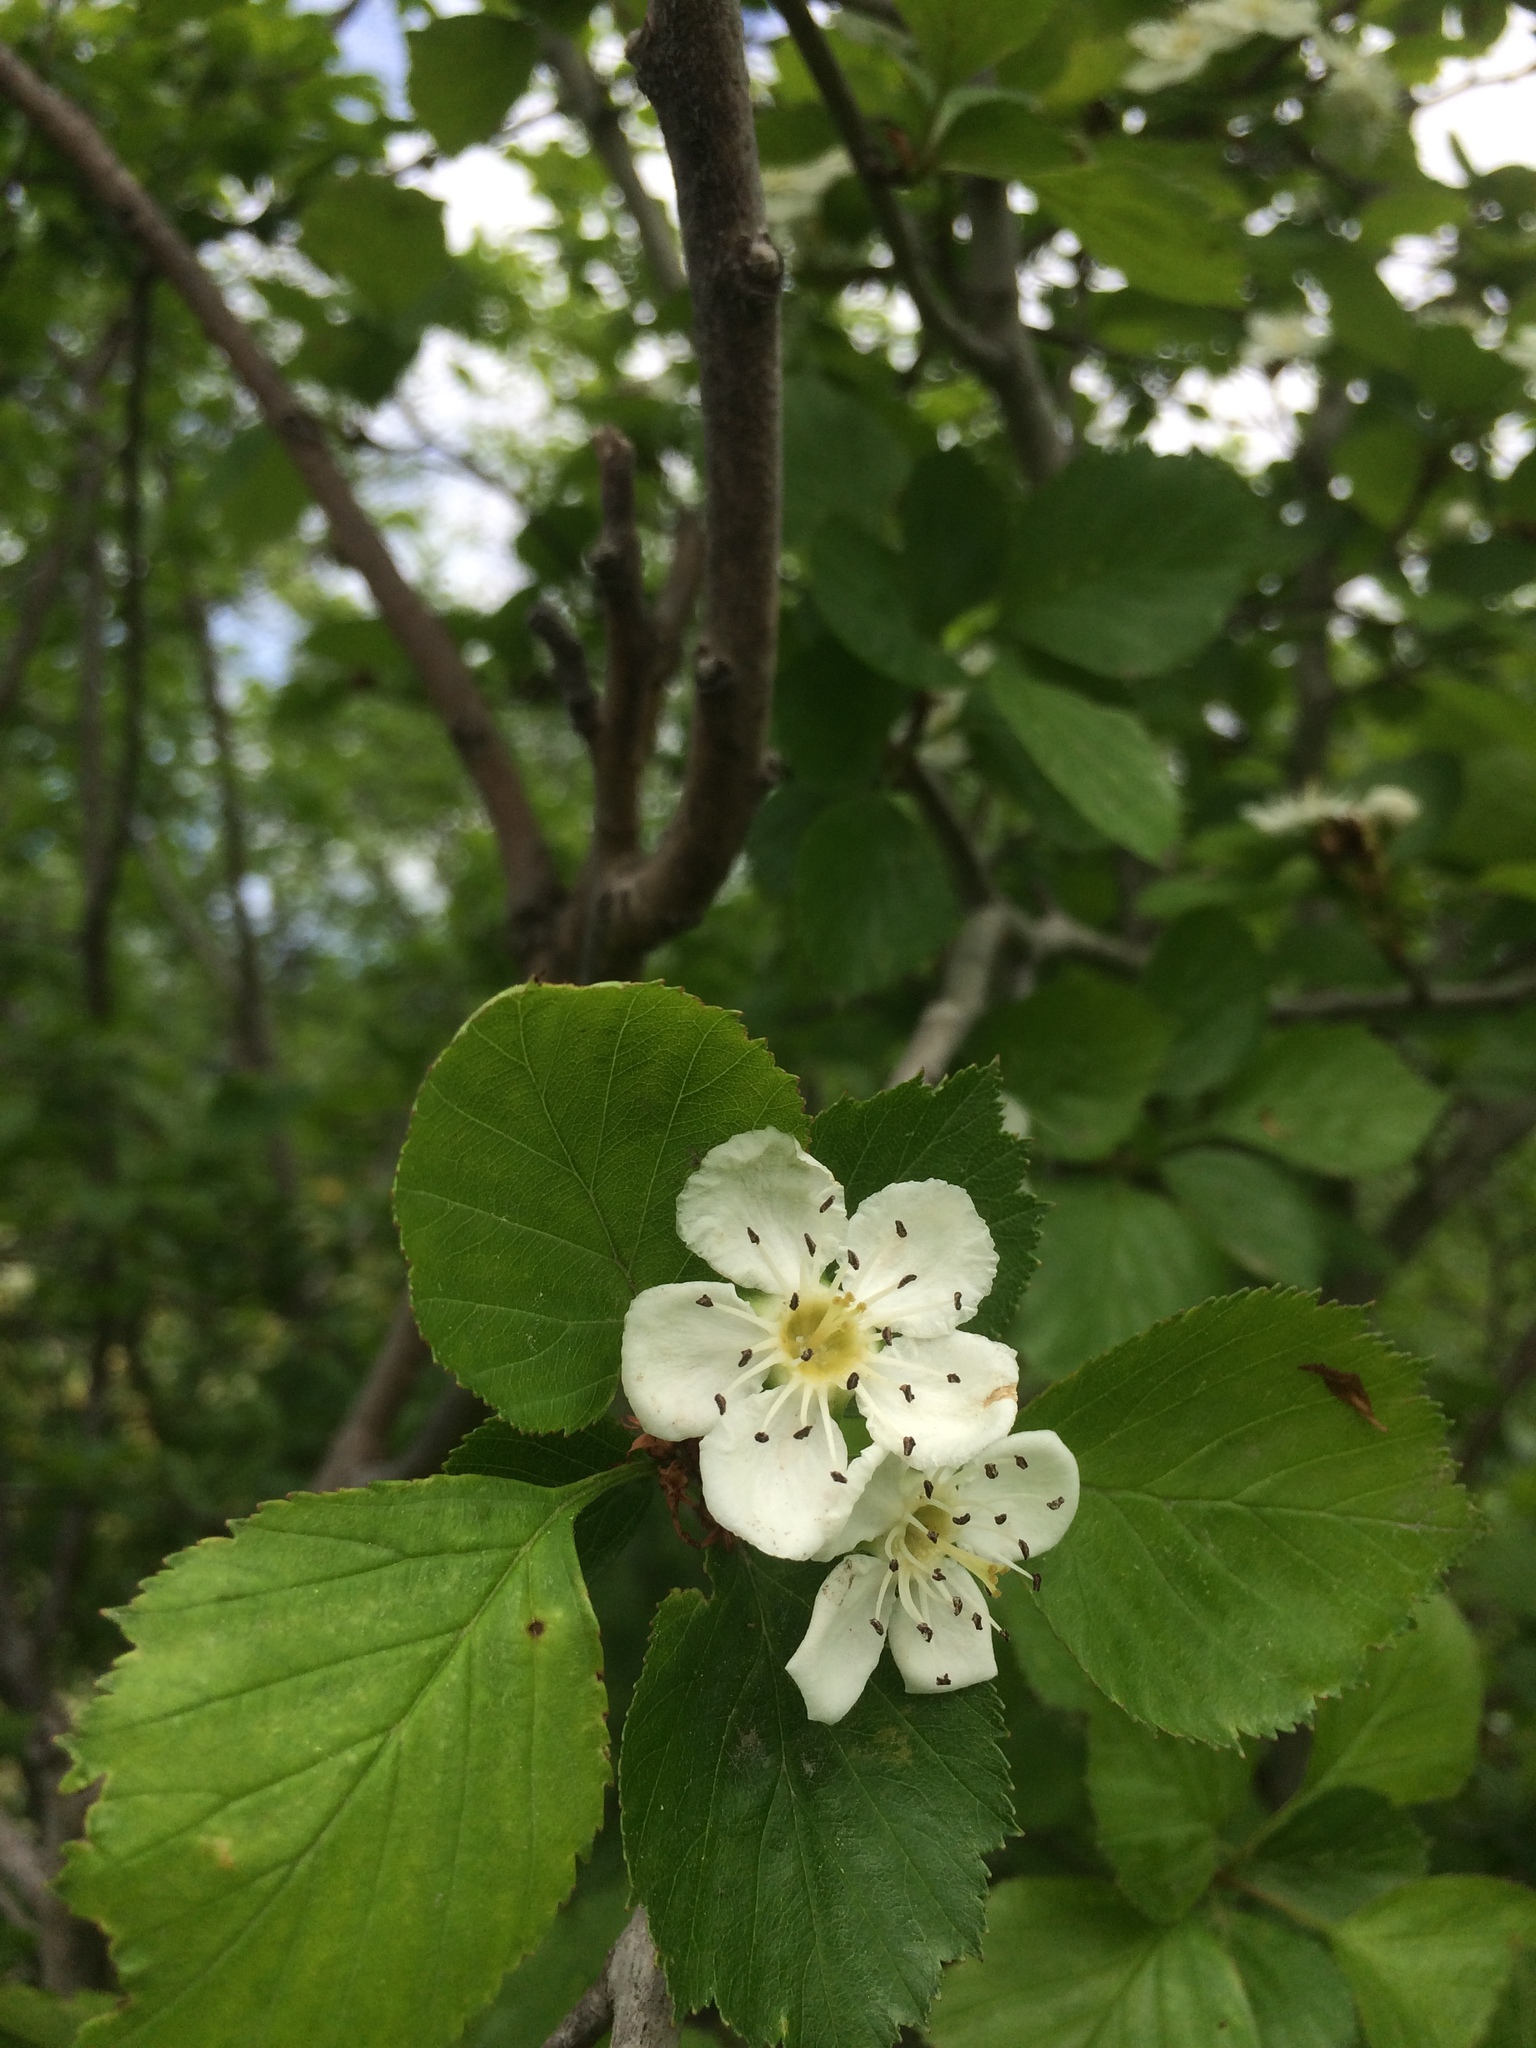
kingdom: Plantae
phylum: Tracheophyta
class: Magnoliopsida
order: Rosales
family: Rosaceae
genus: Crataegus
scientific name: Crataegus suborbiculata
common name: Caughnawaga hawthorn
